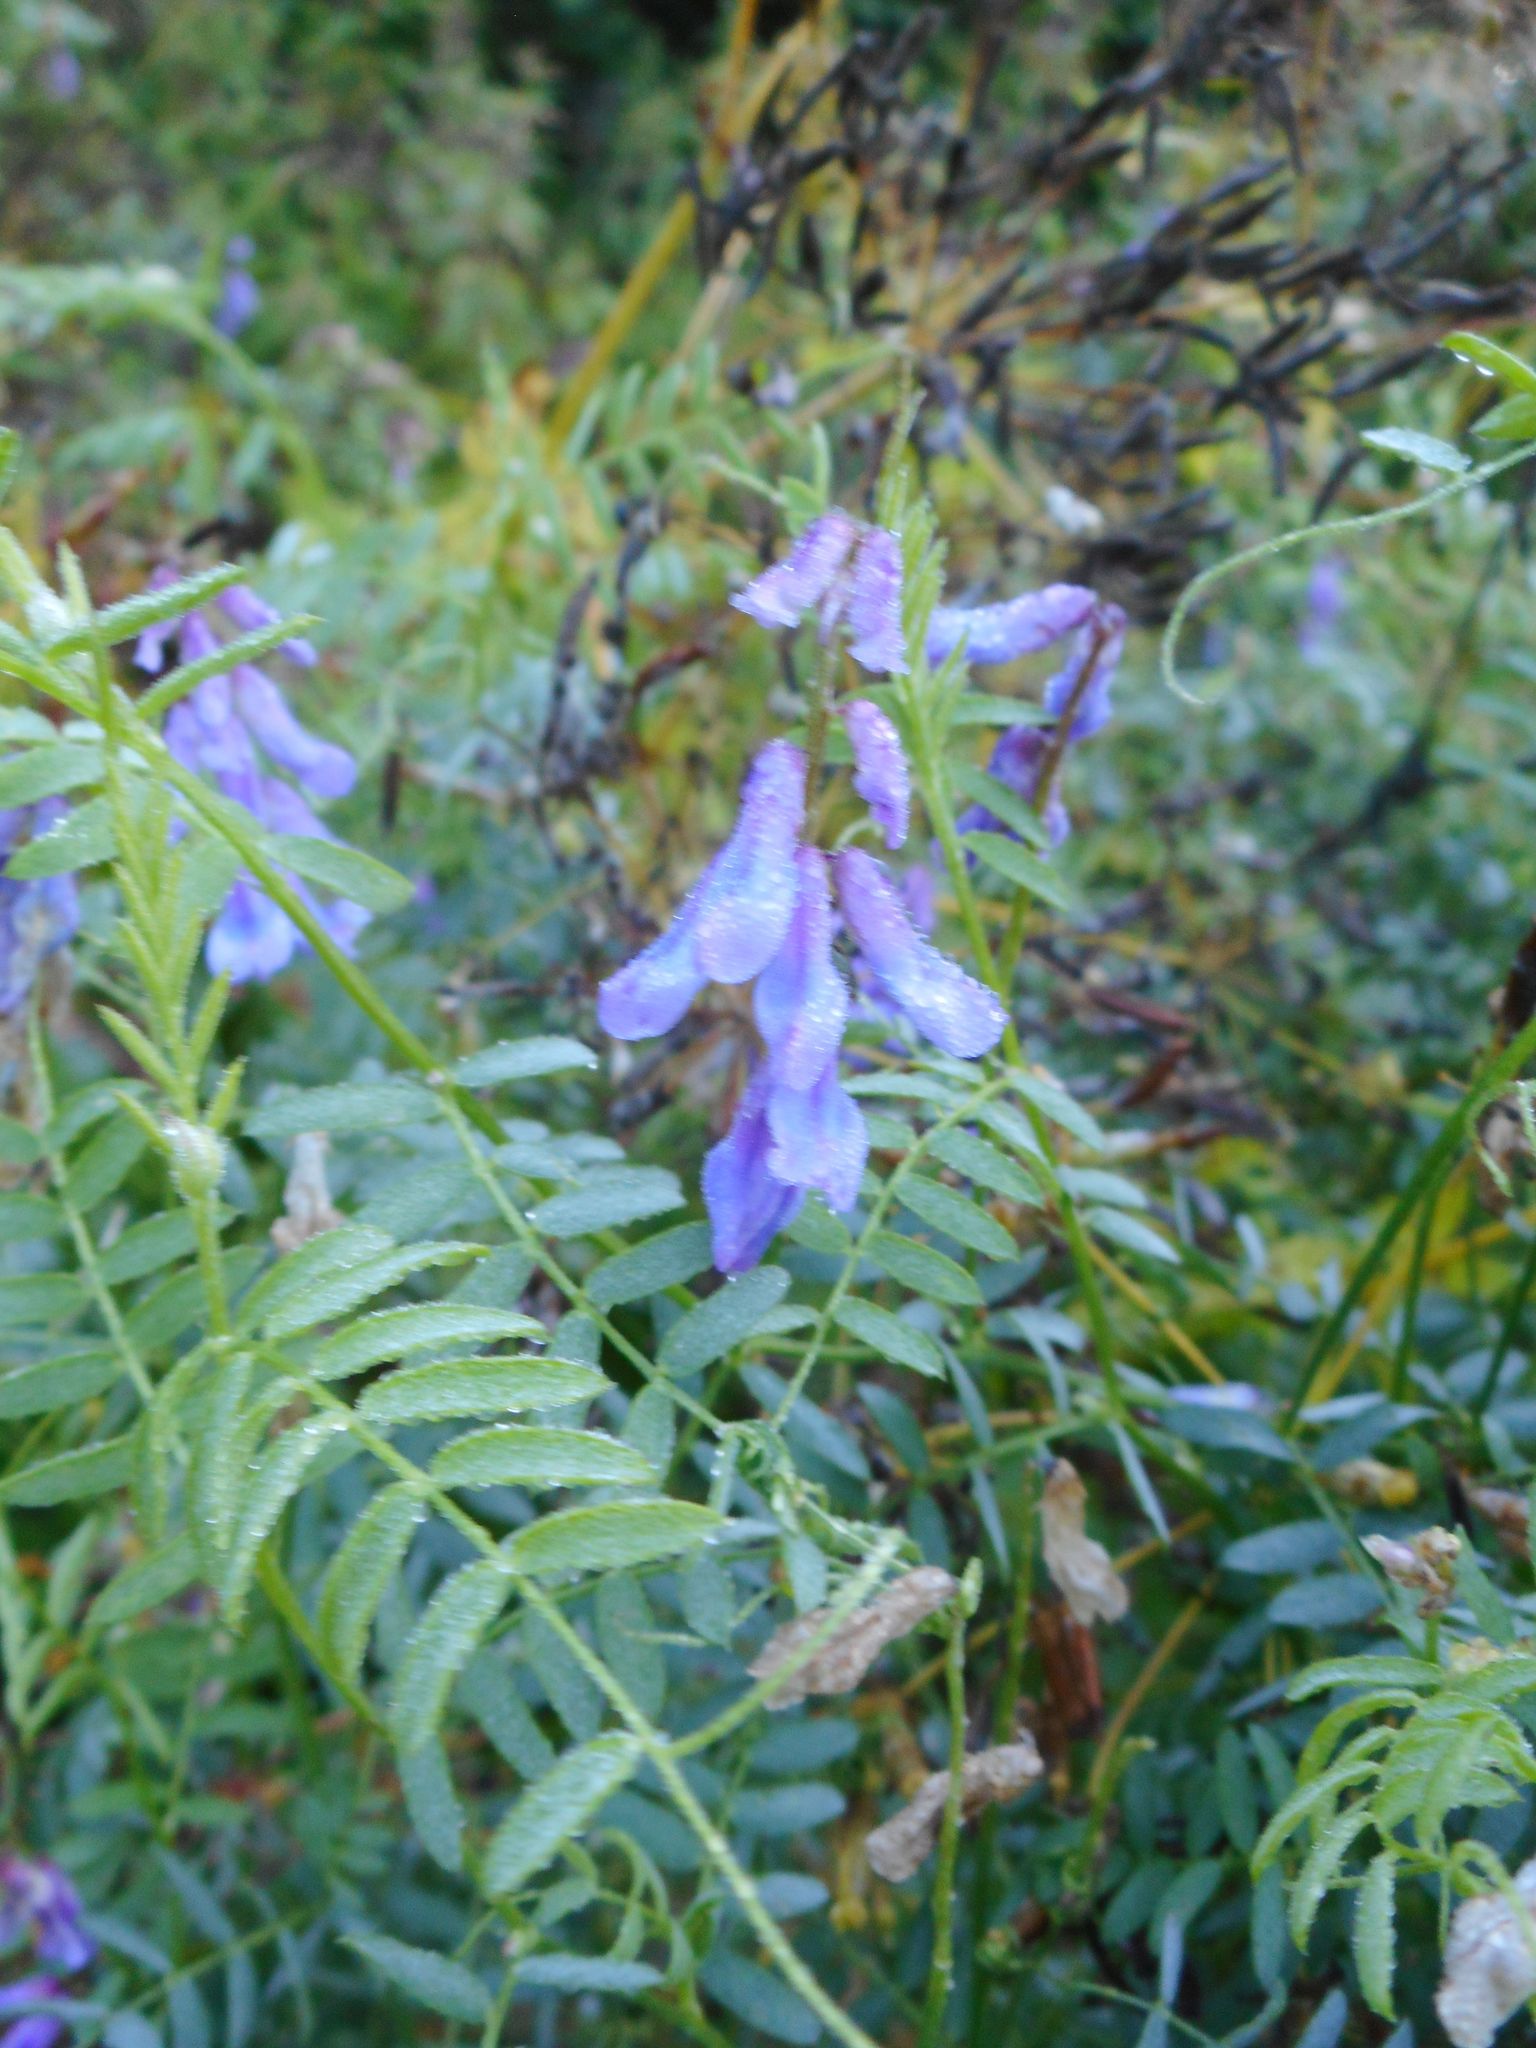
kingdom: Plantae
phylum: Tracheophyta
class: Magnoliopsida
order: Fabales
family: Fabaceae
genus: Vicia
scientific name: Vicia cracca
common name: Bird vetch
